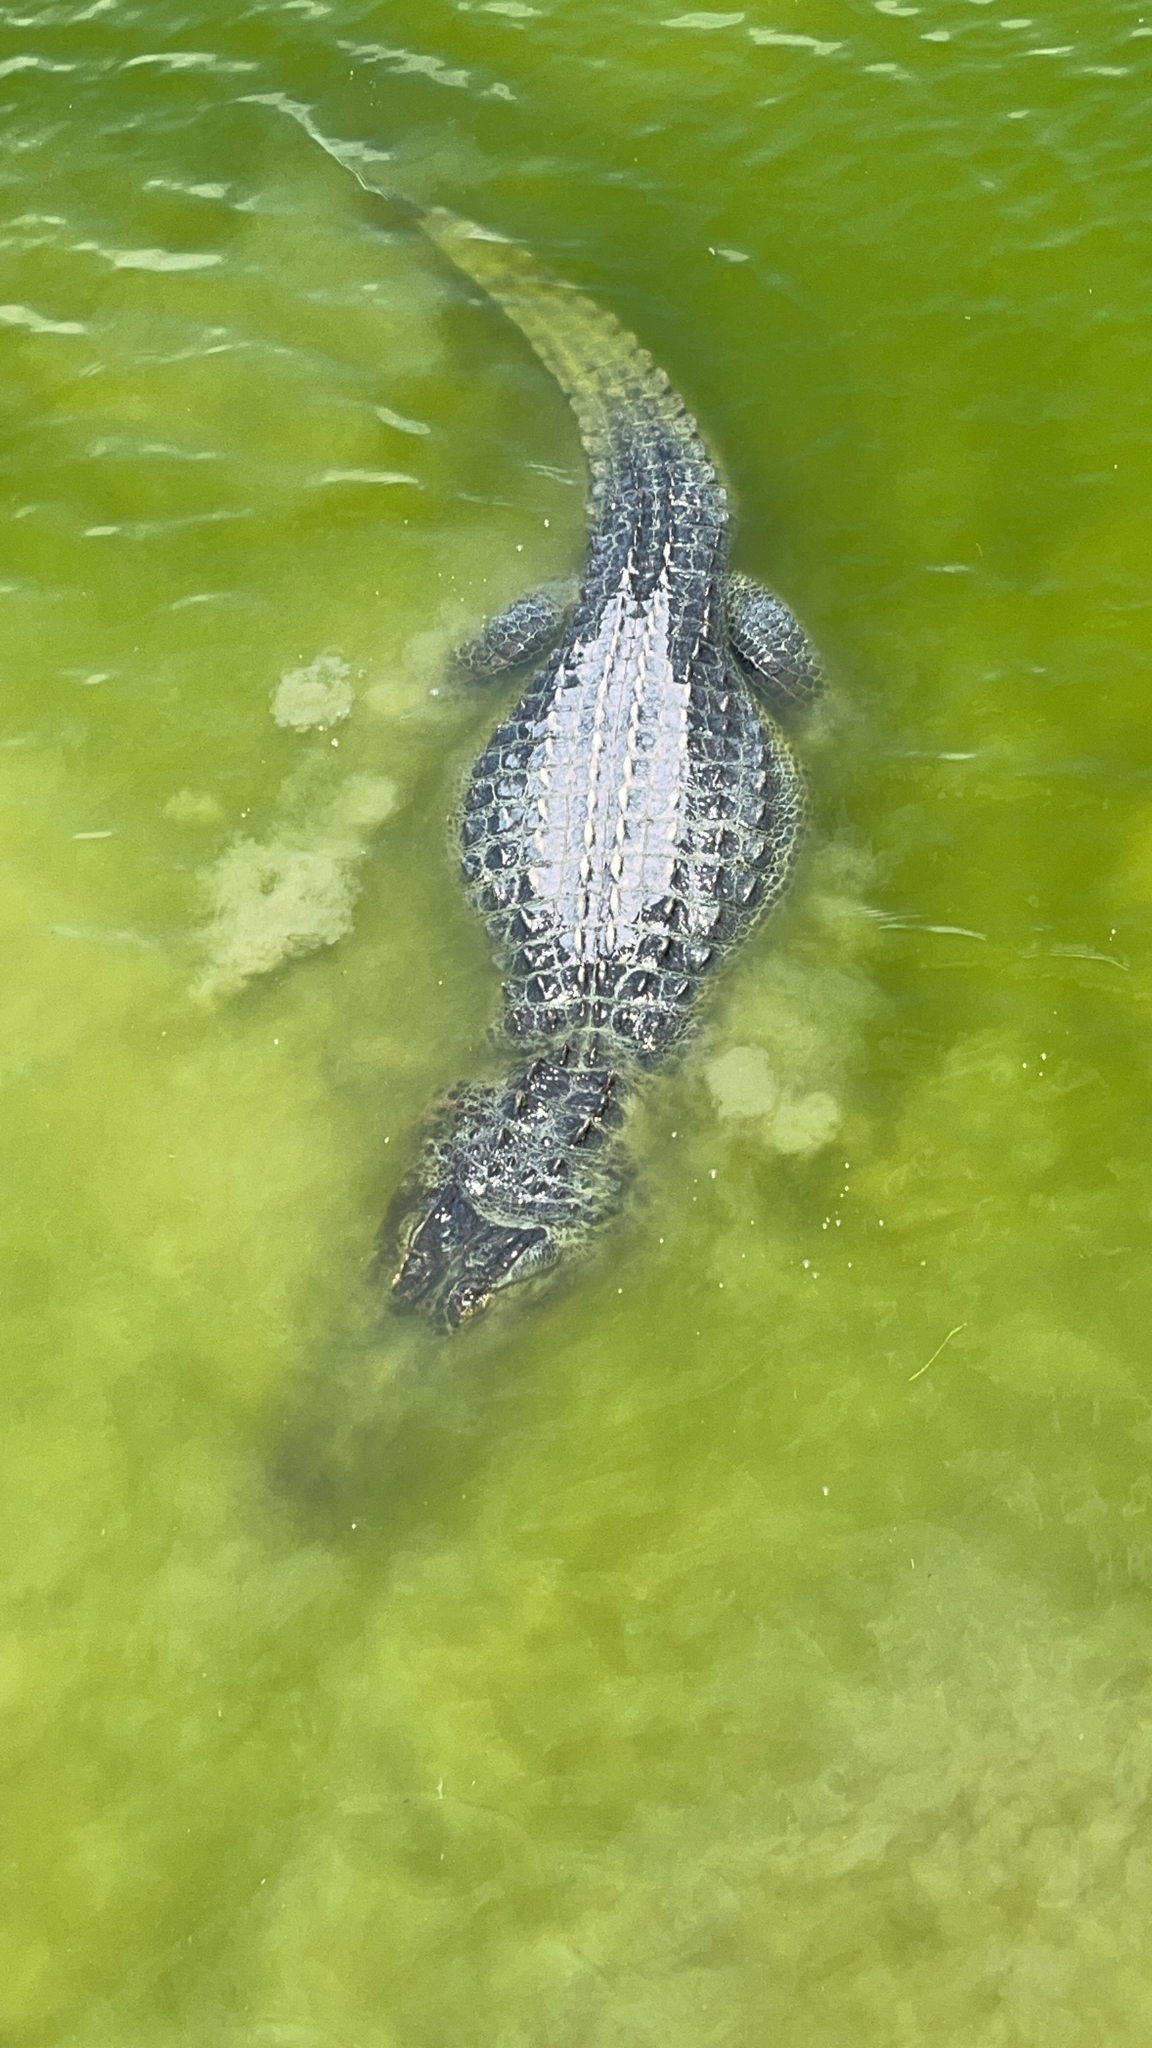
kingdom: Animalia
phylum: Chordata
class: Crocodylia
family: Alligatoridae
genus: Alligator
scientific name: Alligator mississippiensis
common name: American alligator
